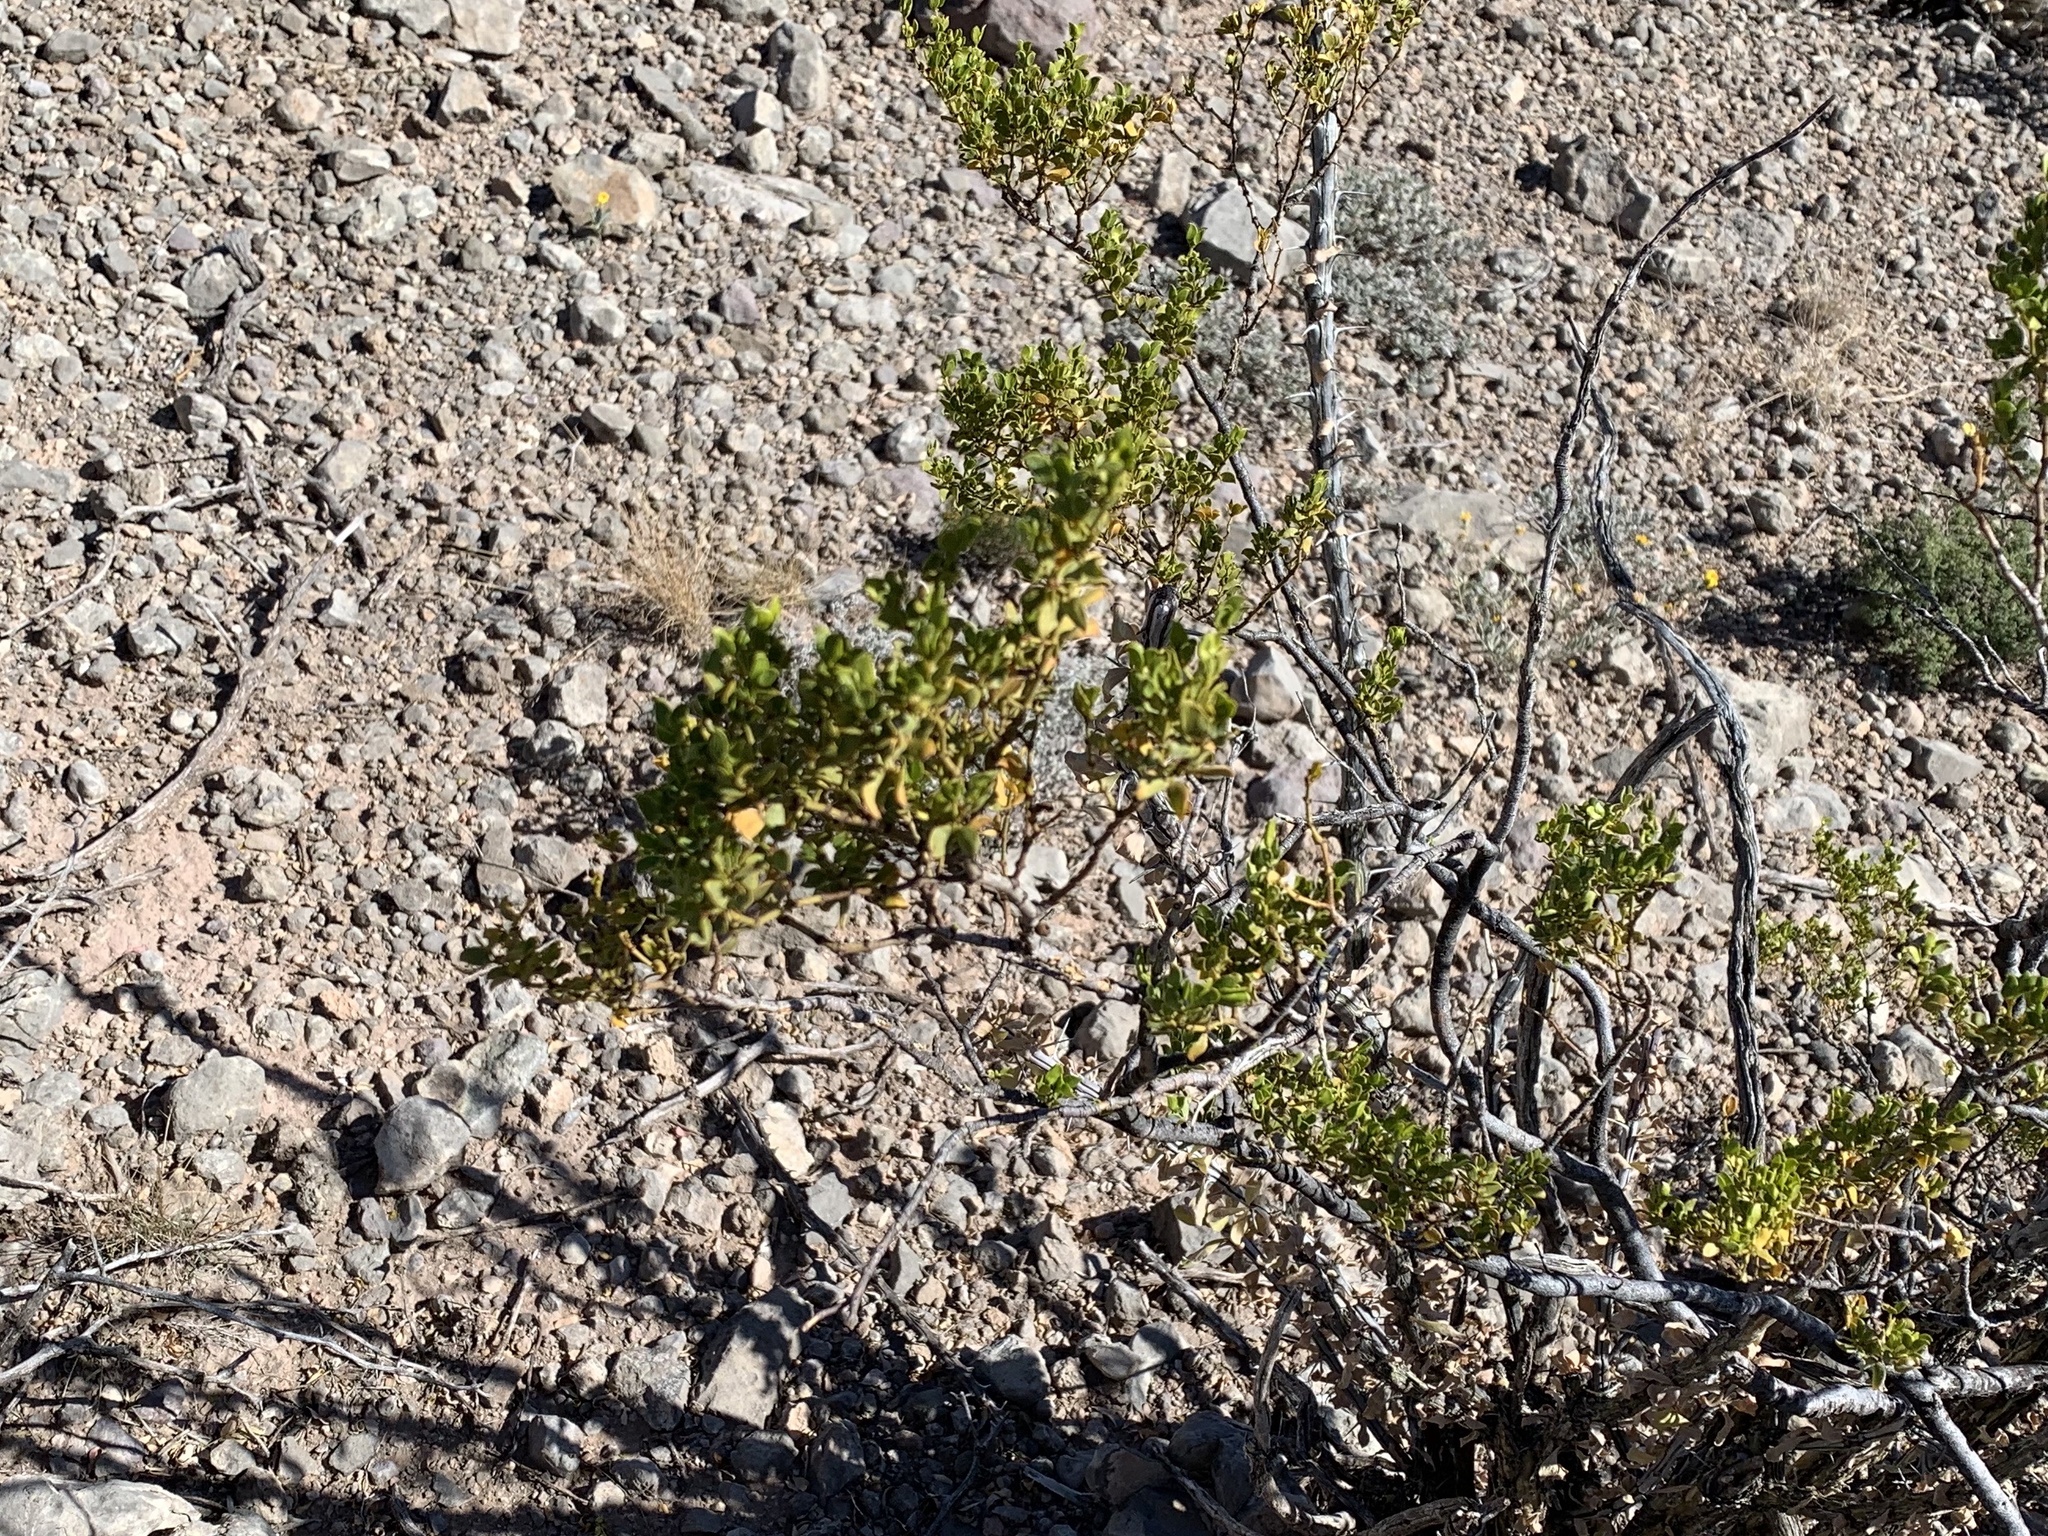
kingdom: Plantae
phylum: Tracheophyta
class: Magnoliopsida
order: Zygophyllales
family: Zygophyllaceae
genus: Larrea
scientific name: Larrea tridentata
